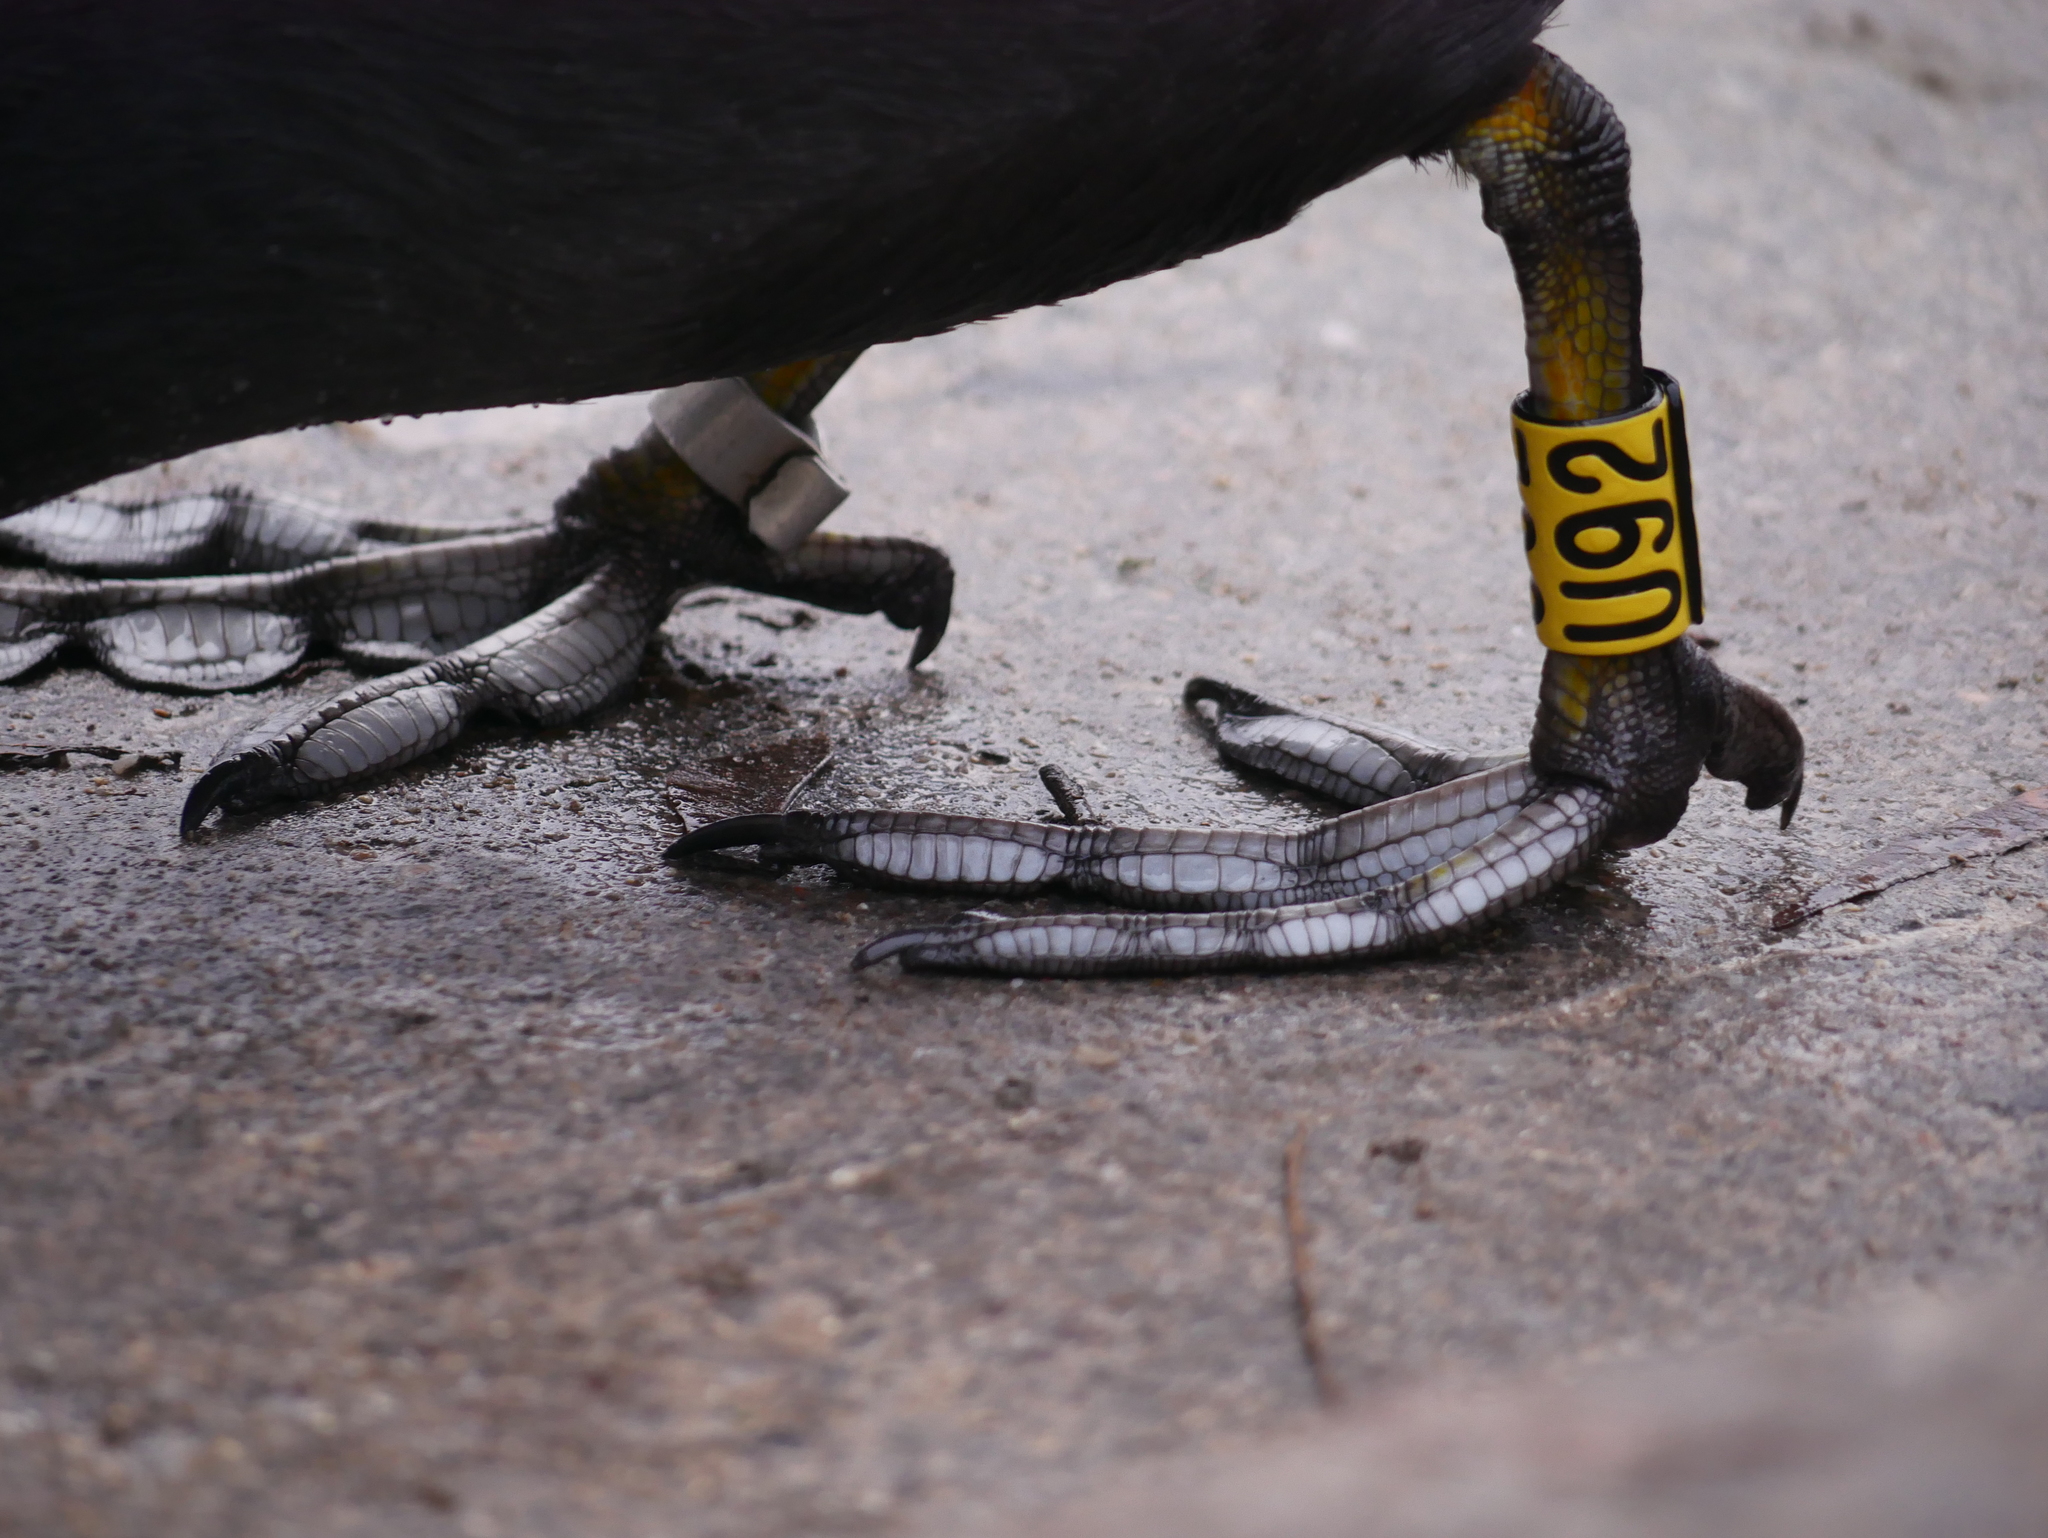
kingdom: Animalia
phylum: Chordata
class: Aves
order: Gruiformes
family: Rallidae
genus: Fulica
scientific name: Fulica atra
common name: Eurasian coot
